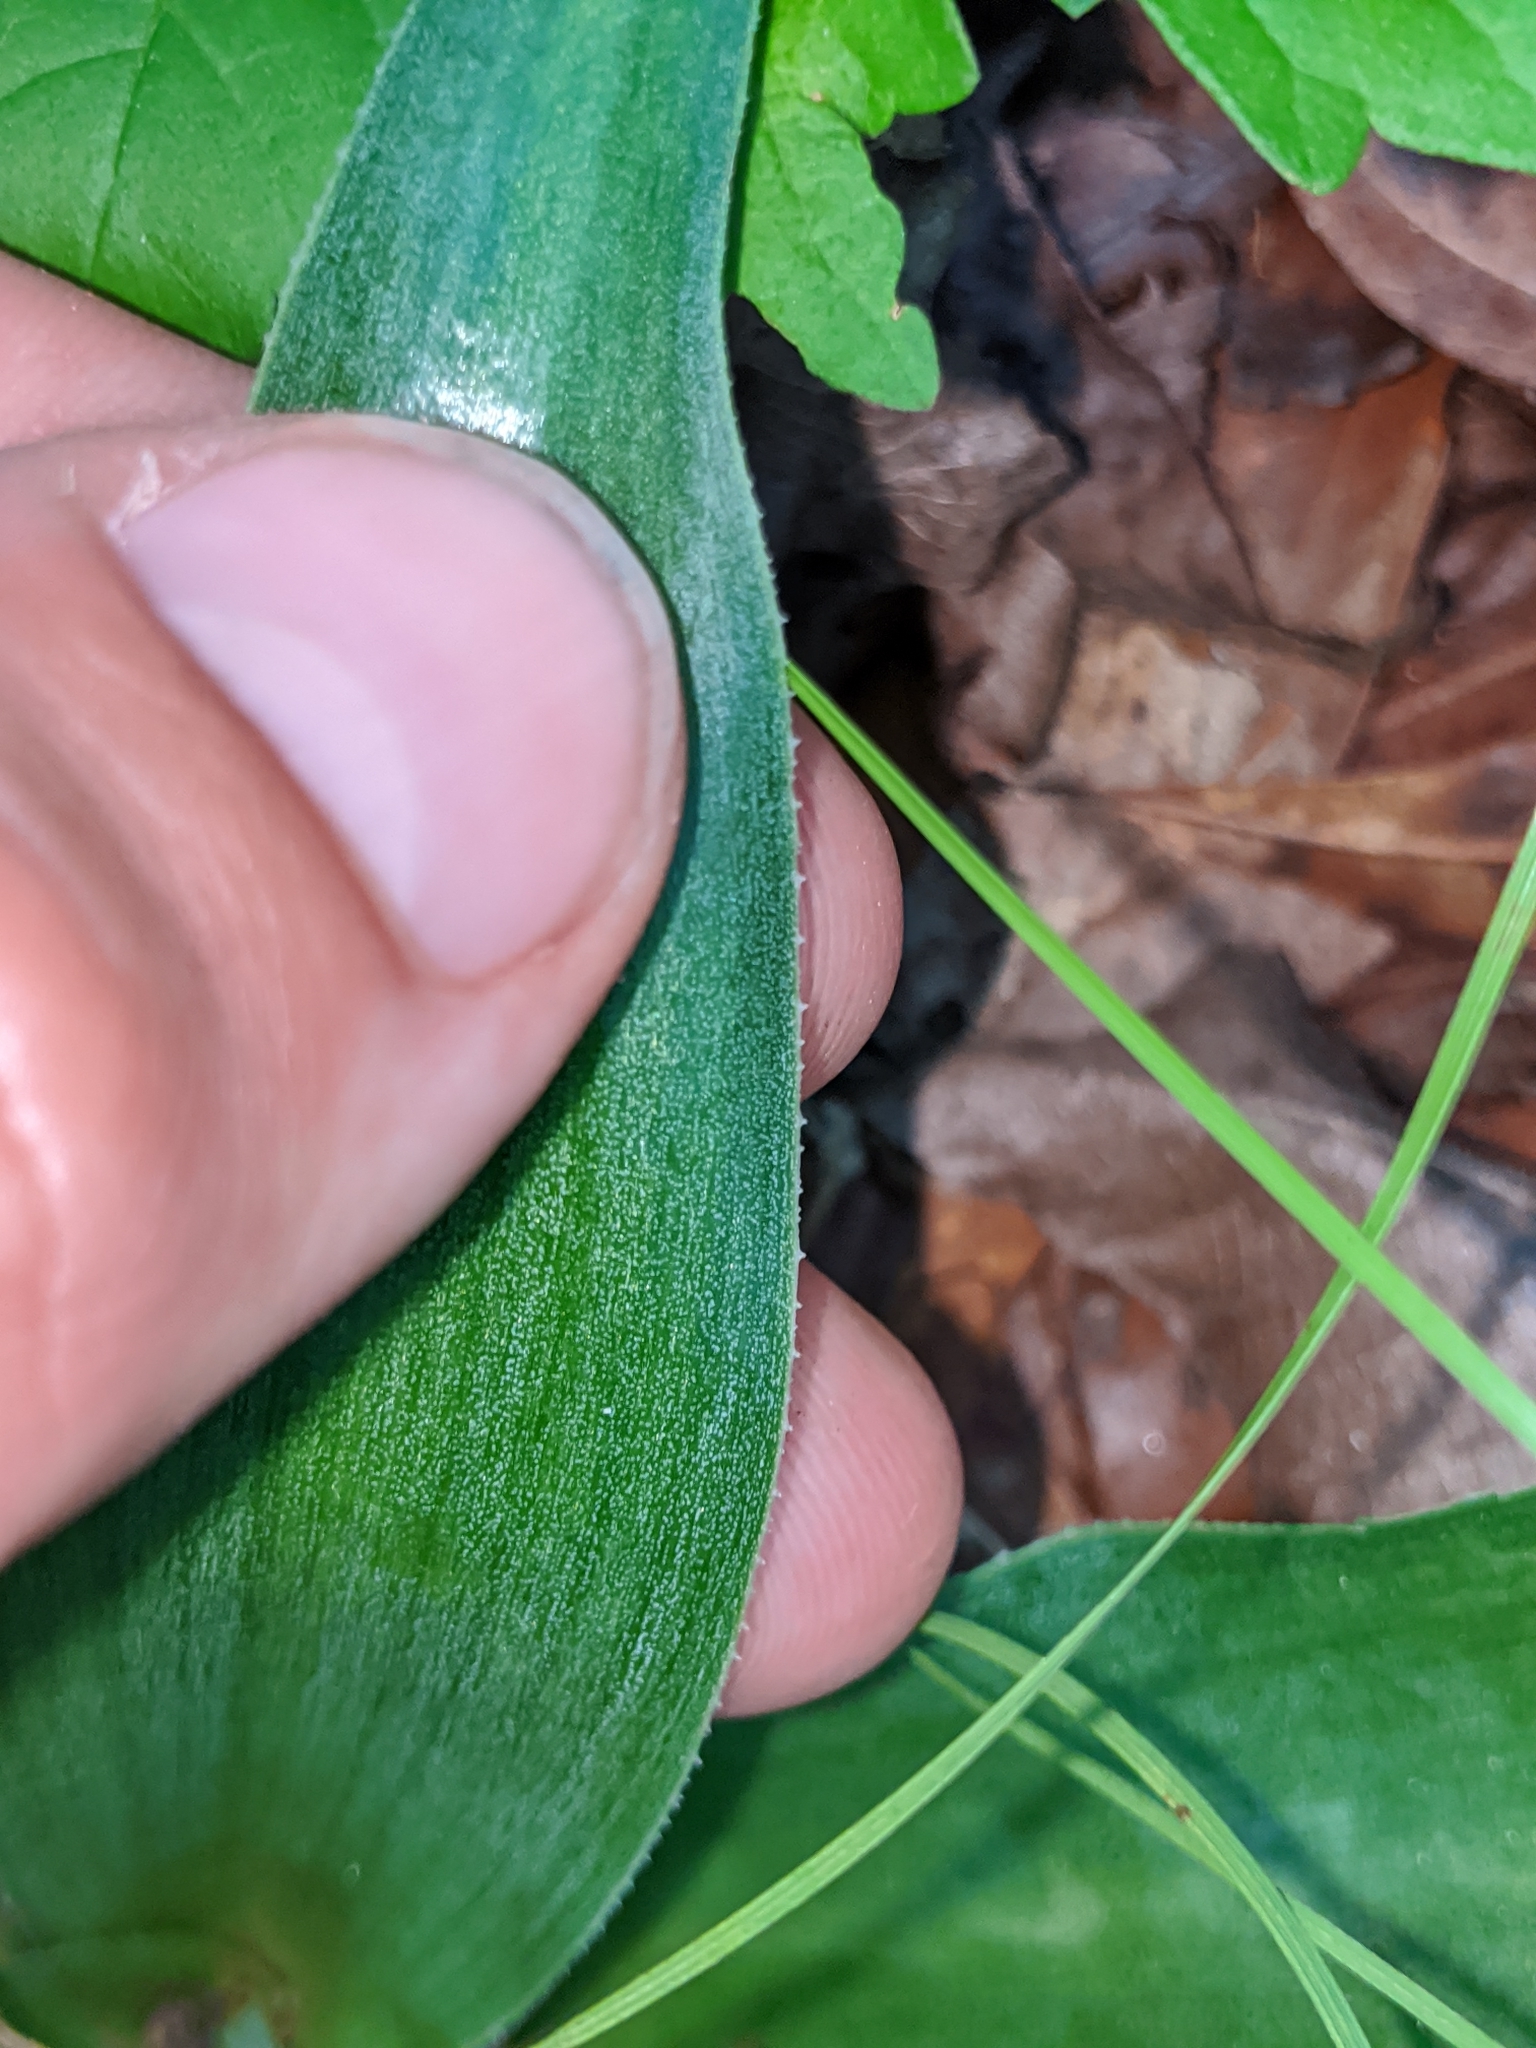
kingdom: Plantae
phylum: Tracheophyta
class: Liliopsida
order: Asparagales
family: Asparagaceae
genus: Agave
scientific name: Agave virginica
